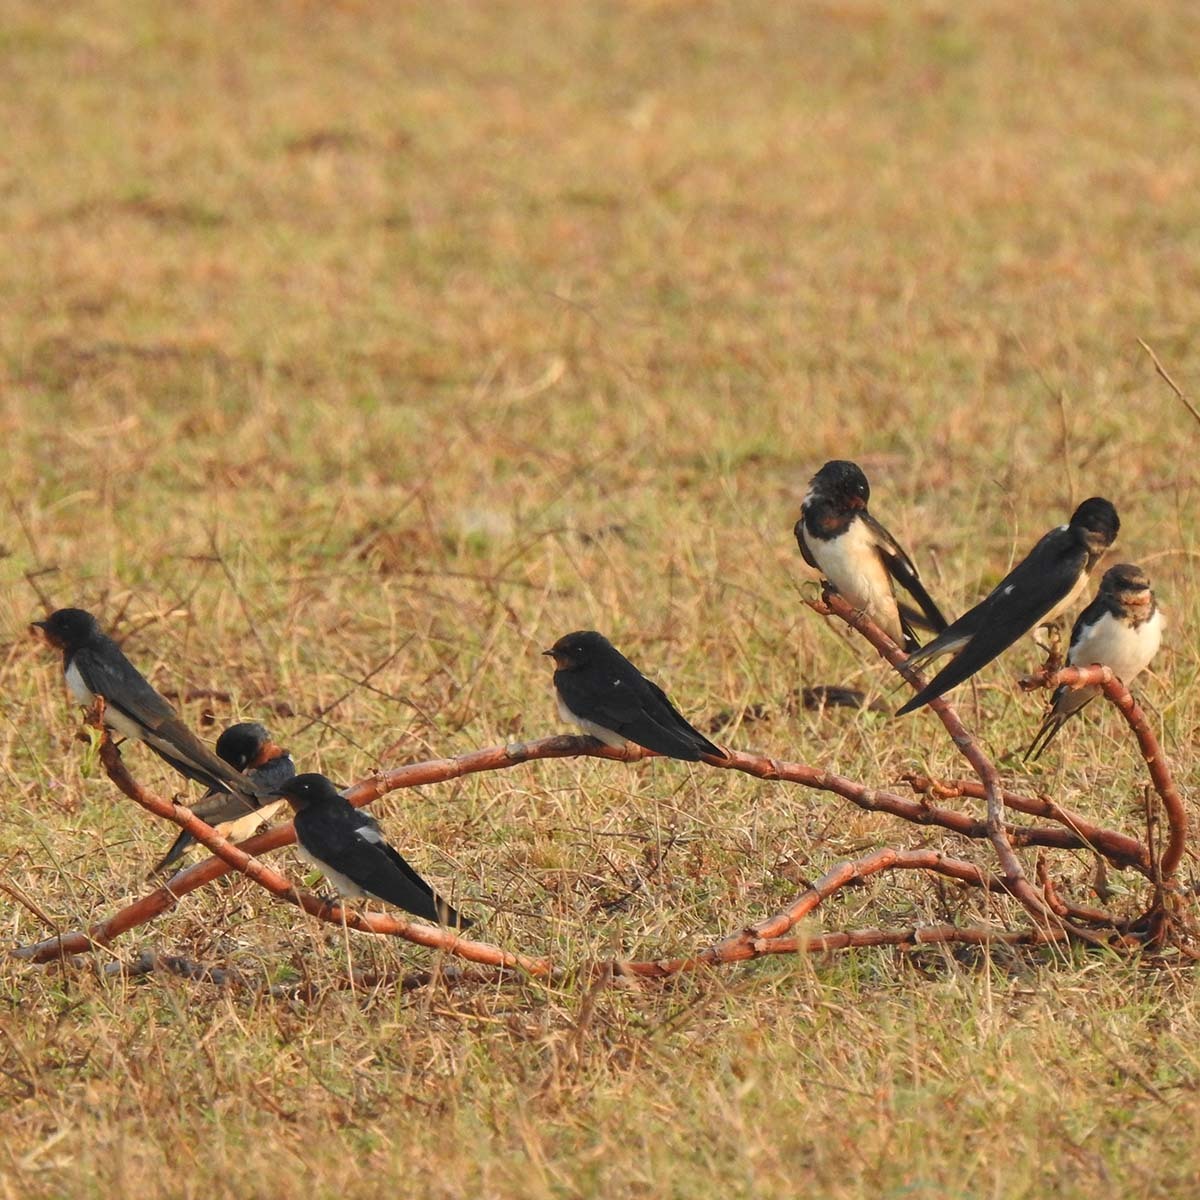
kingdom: Animalia
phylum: Chordata
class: Aves
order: Passeriformes
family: Hirundinidae
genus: Hirundo
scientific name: Hirundo rustica
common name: Barn swallow
